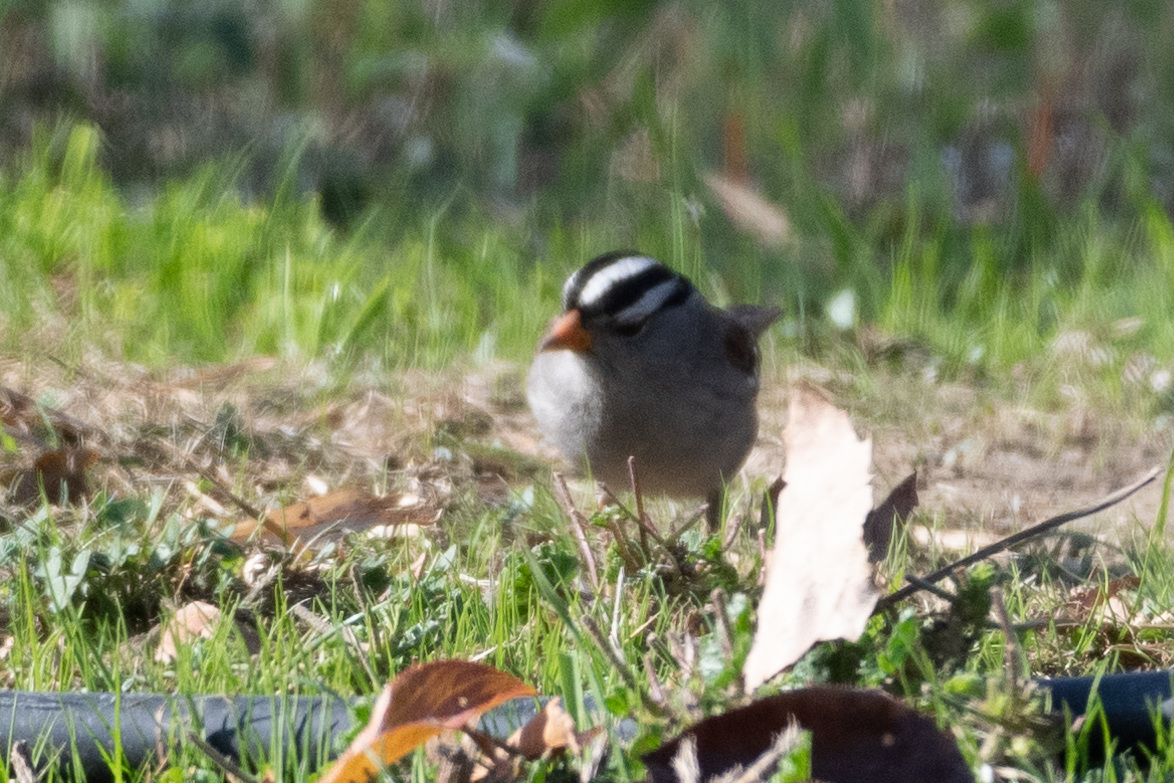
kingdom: Animalia
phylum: Chordata
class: Aves
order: Passeriformes
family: Passerellidae
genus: Zonotrichia
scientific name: Zonotrichia leucophrys
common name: White-crowned sparrow
